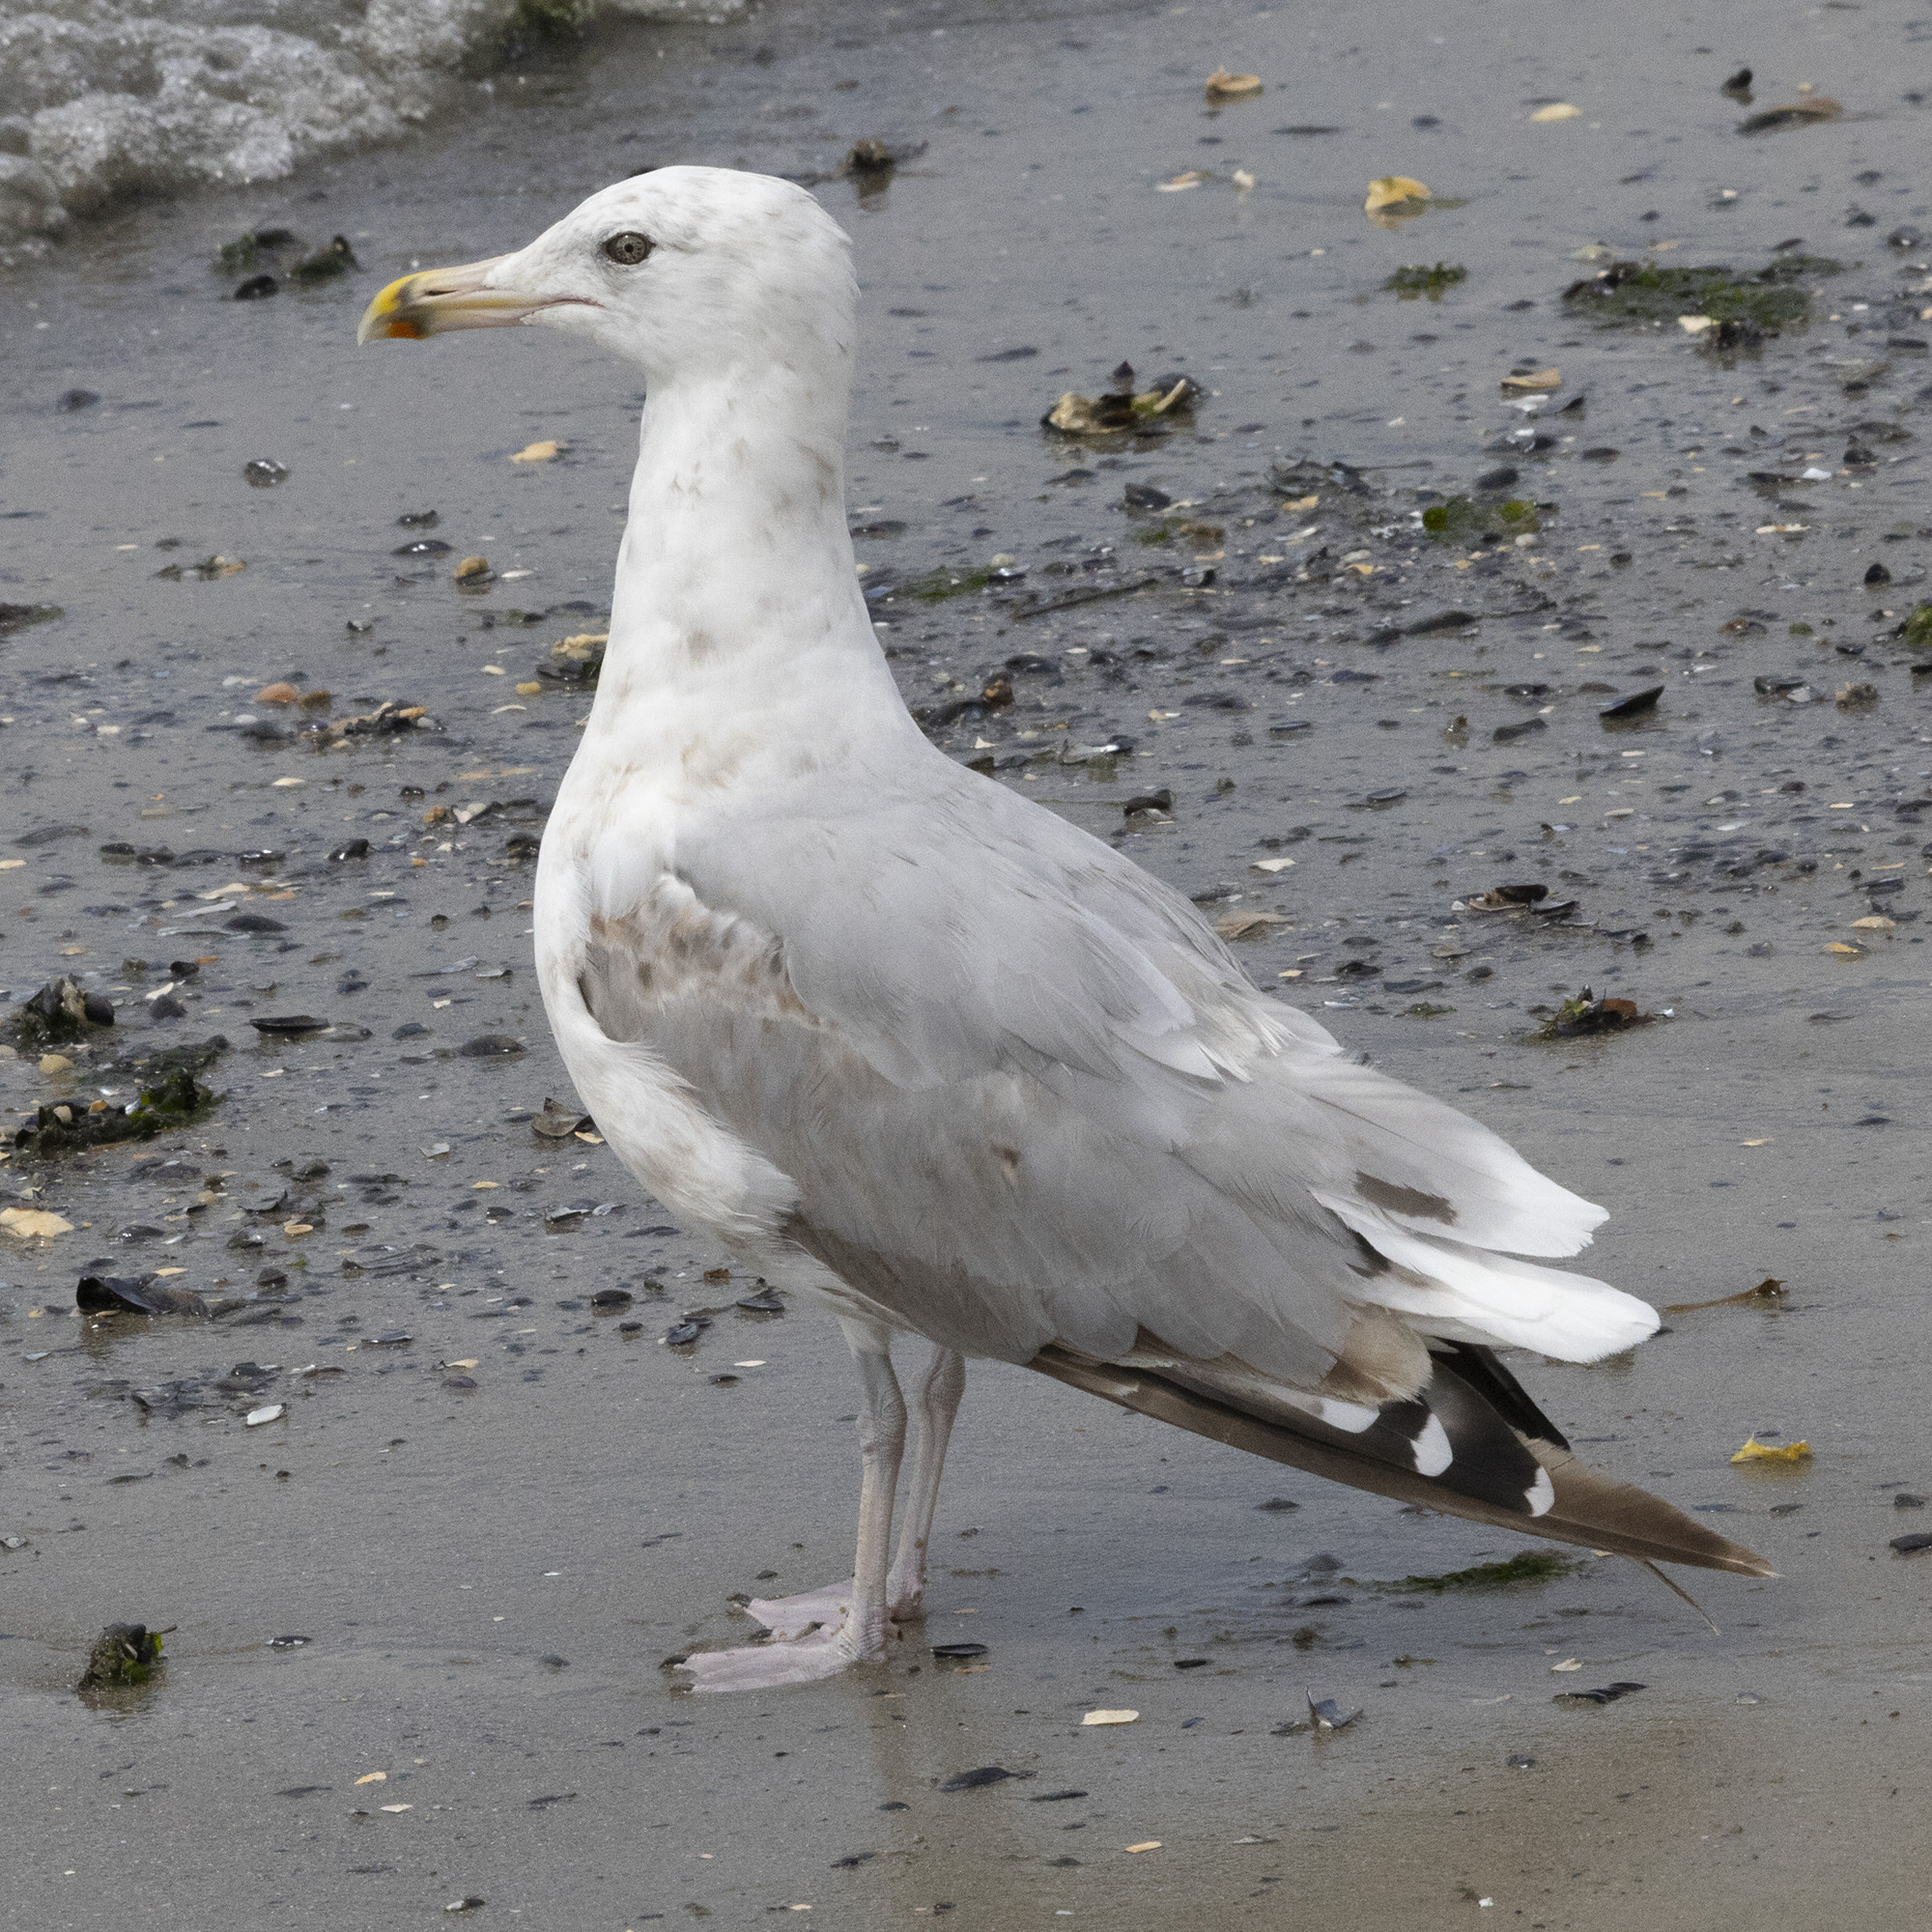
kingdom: Animalia
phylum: Chordata
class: Aves
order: Charadriiformes
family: Laridae
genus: Larus
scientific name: Larus argentatus
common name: Herring gull
